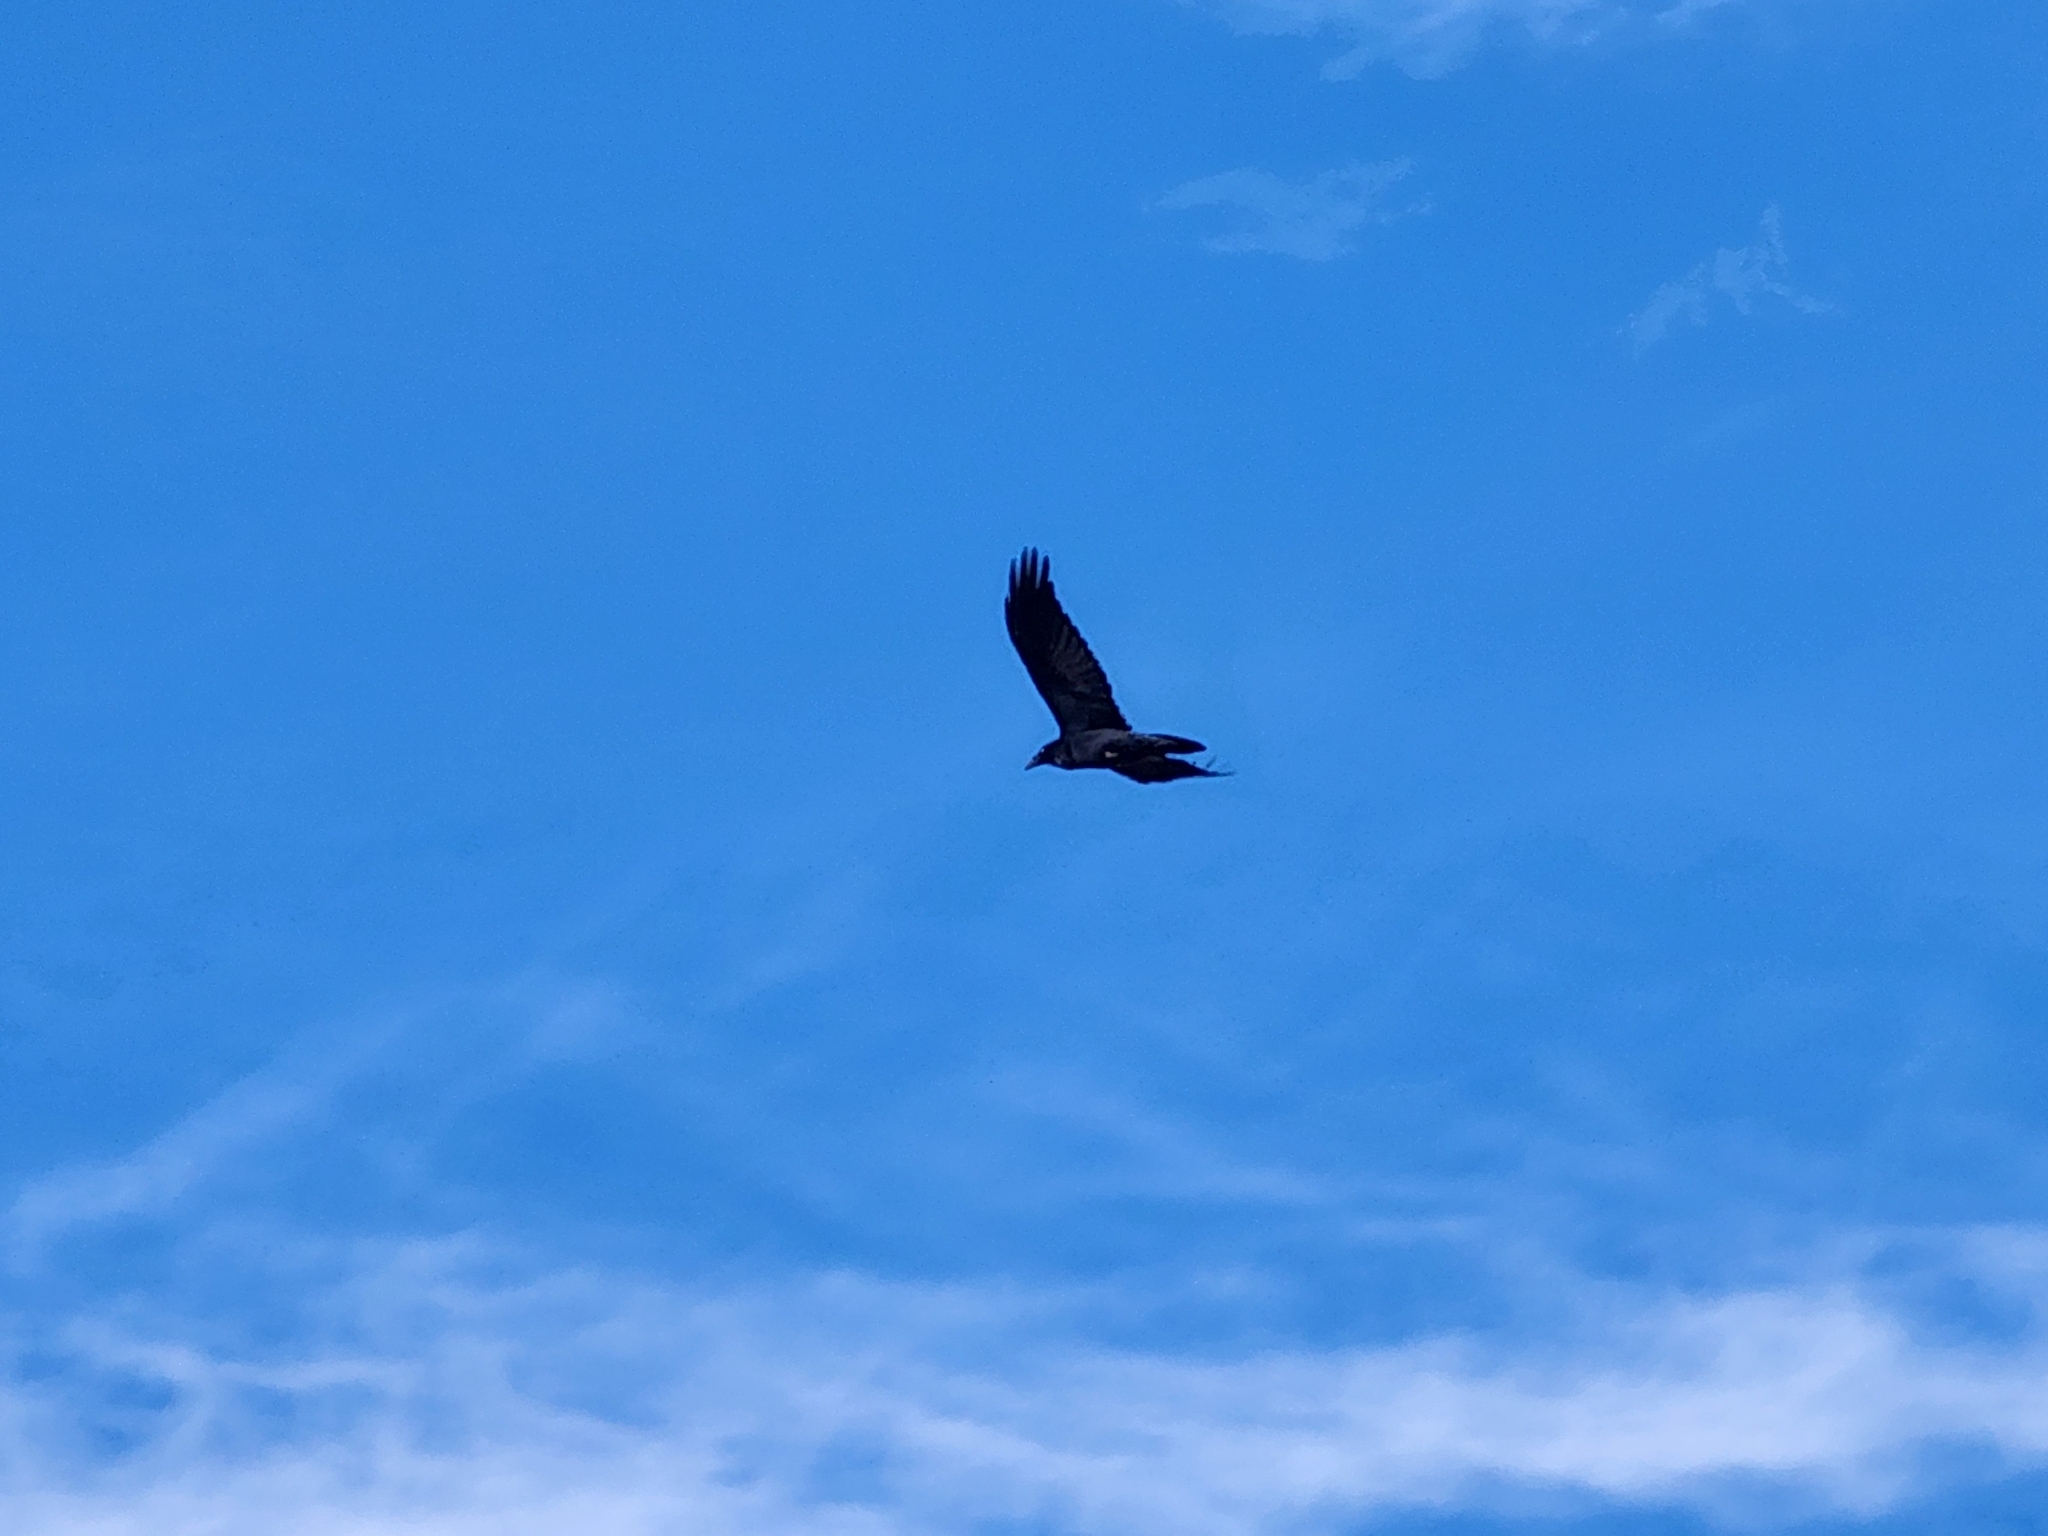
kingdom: Animalia
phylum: Chordata
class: Aves
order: Passeriformes
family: Corvidae
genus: Corvus
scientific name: Corvus corax
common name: Common raven
